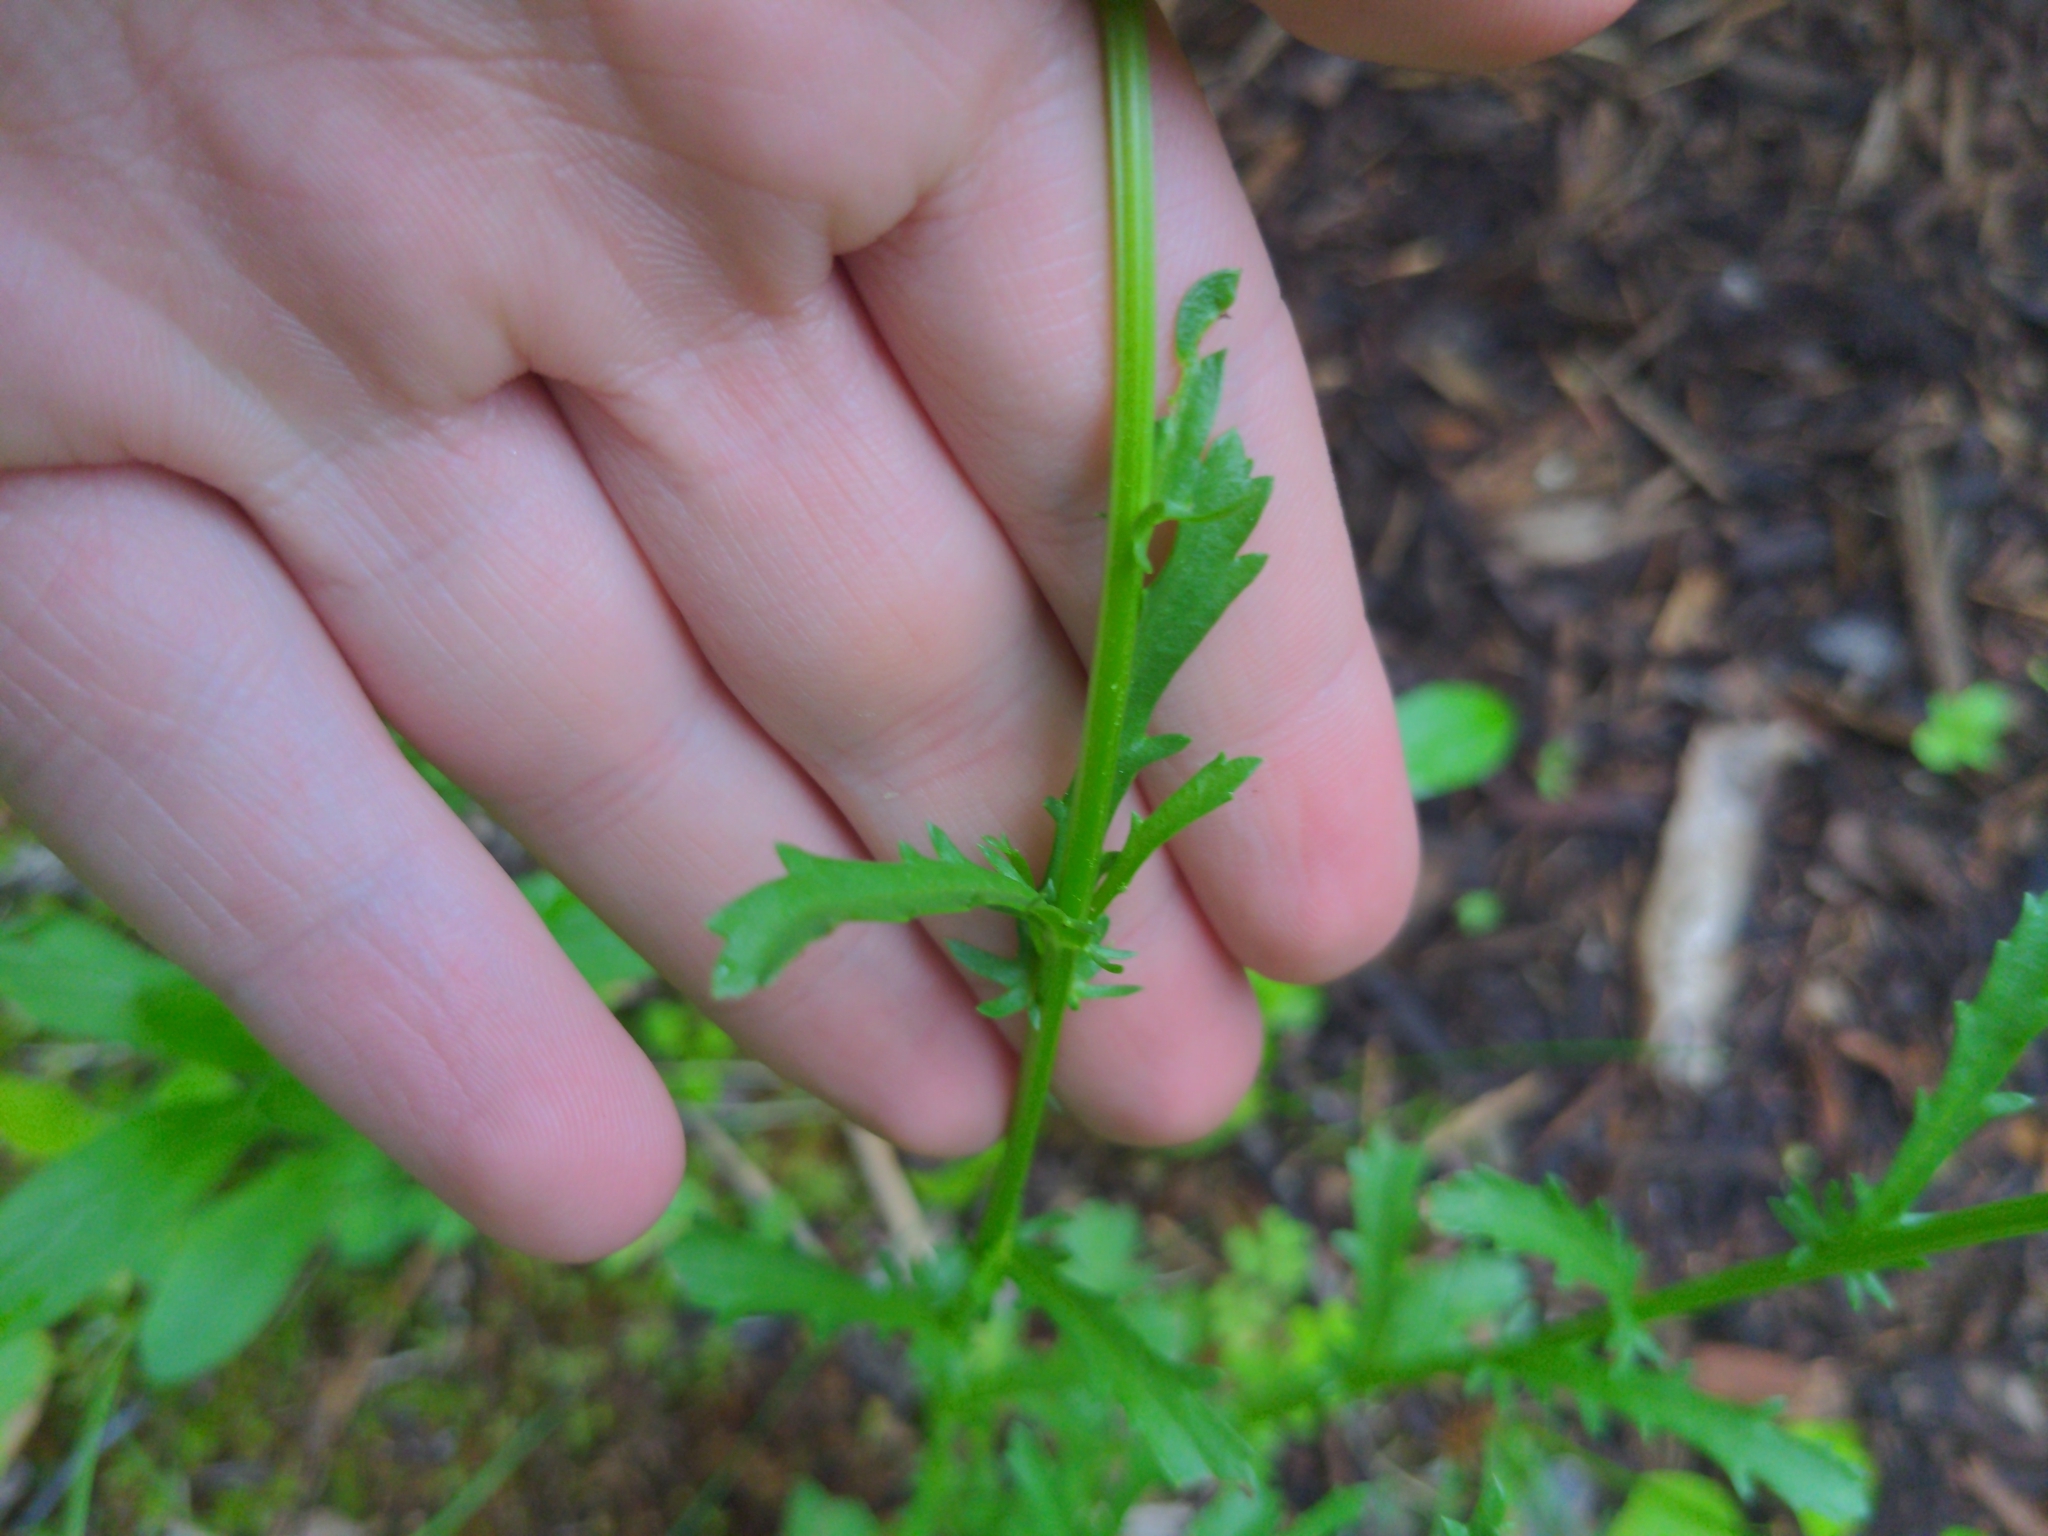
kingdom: Plantae
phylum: Tracheophyta
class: Magnoliopsida
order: Asterales
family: Asteraceae
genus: Leucanthemum
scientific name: Leucanthemum vulgare
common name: Oxeye daisy
